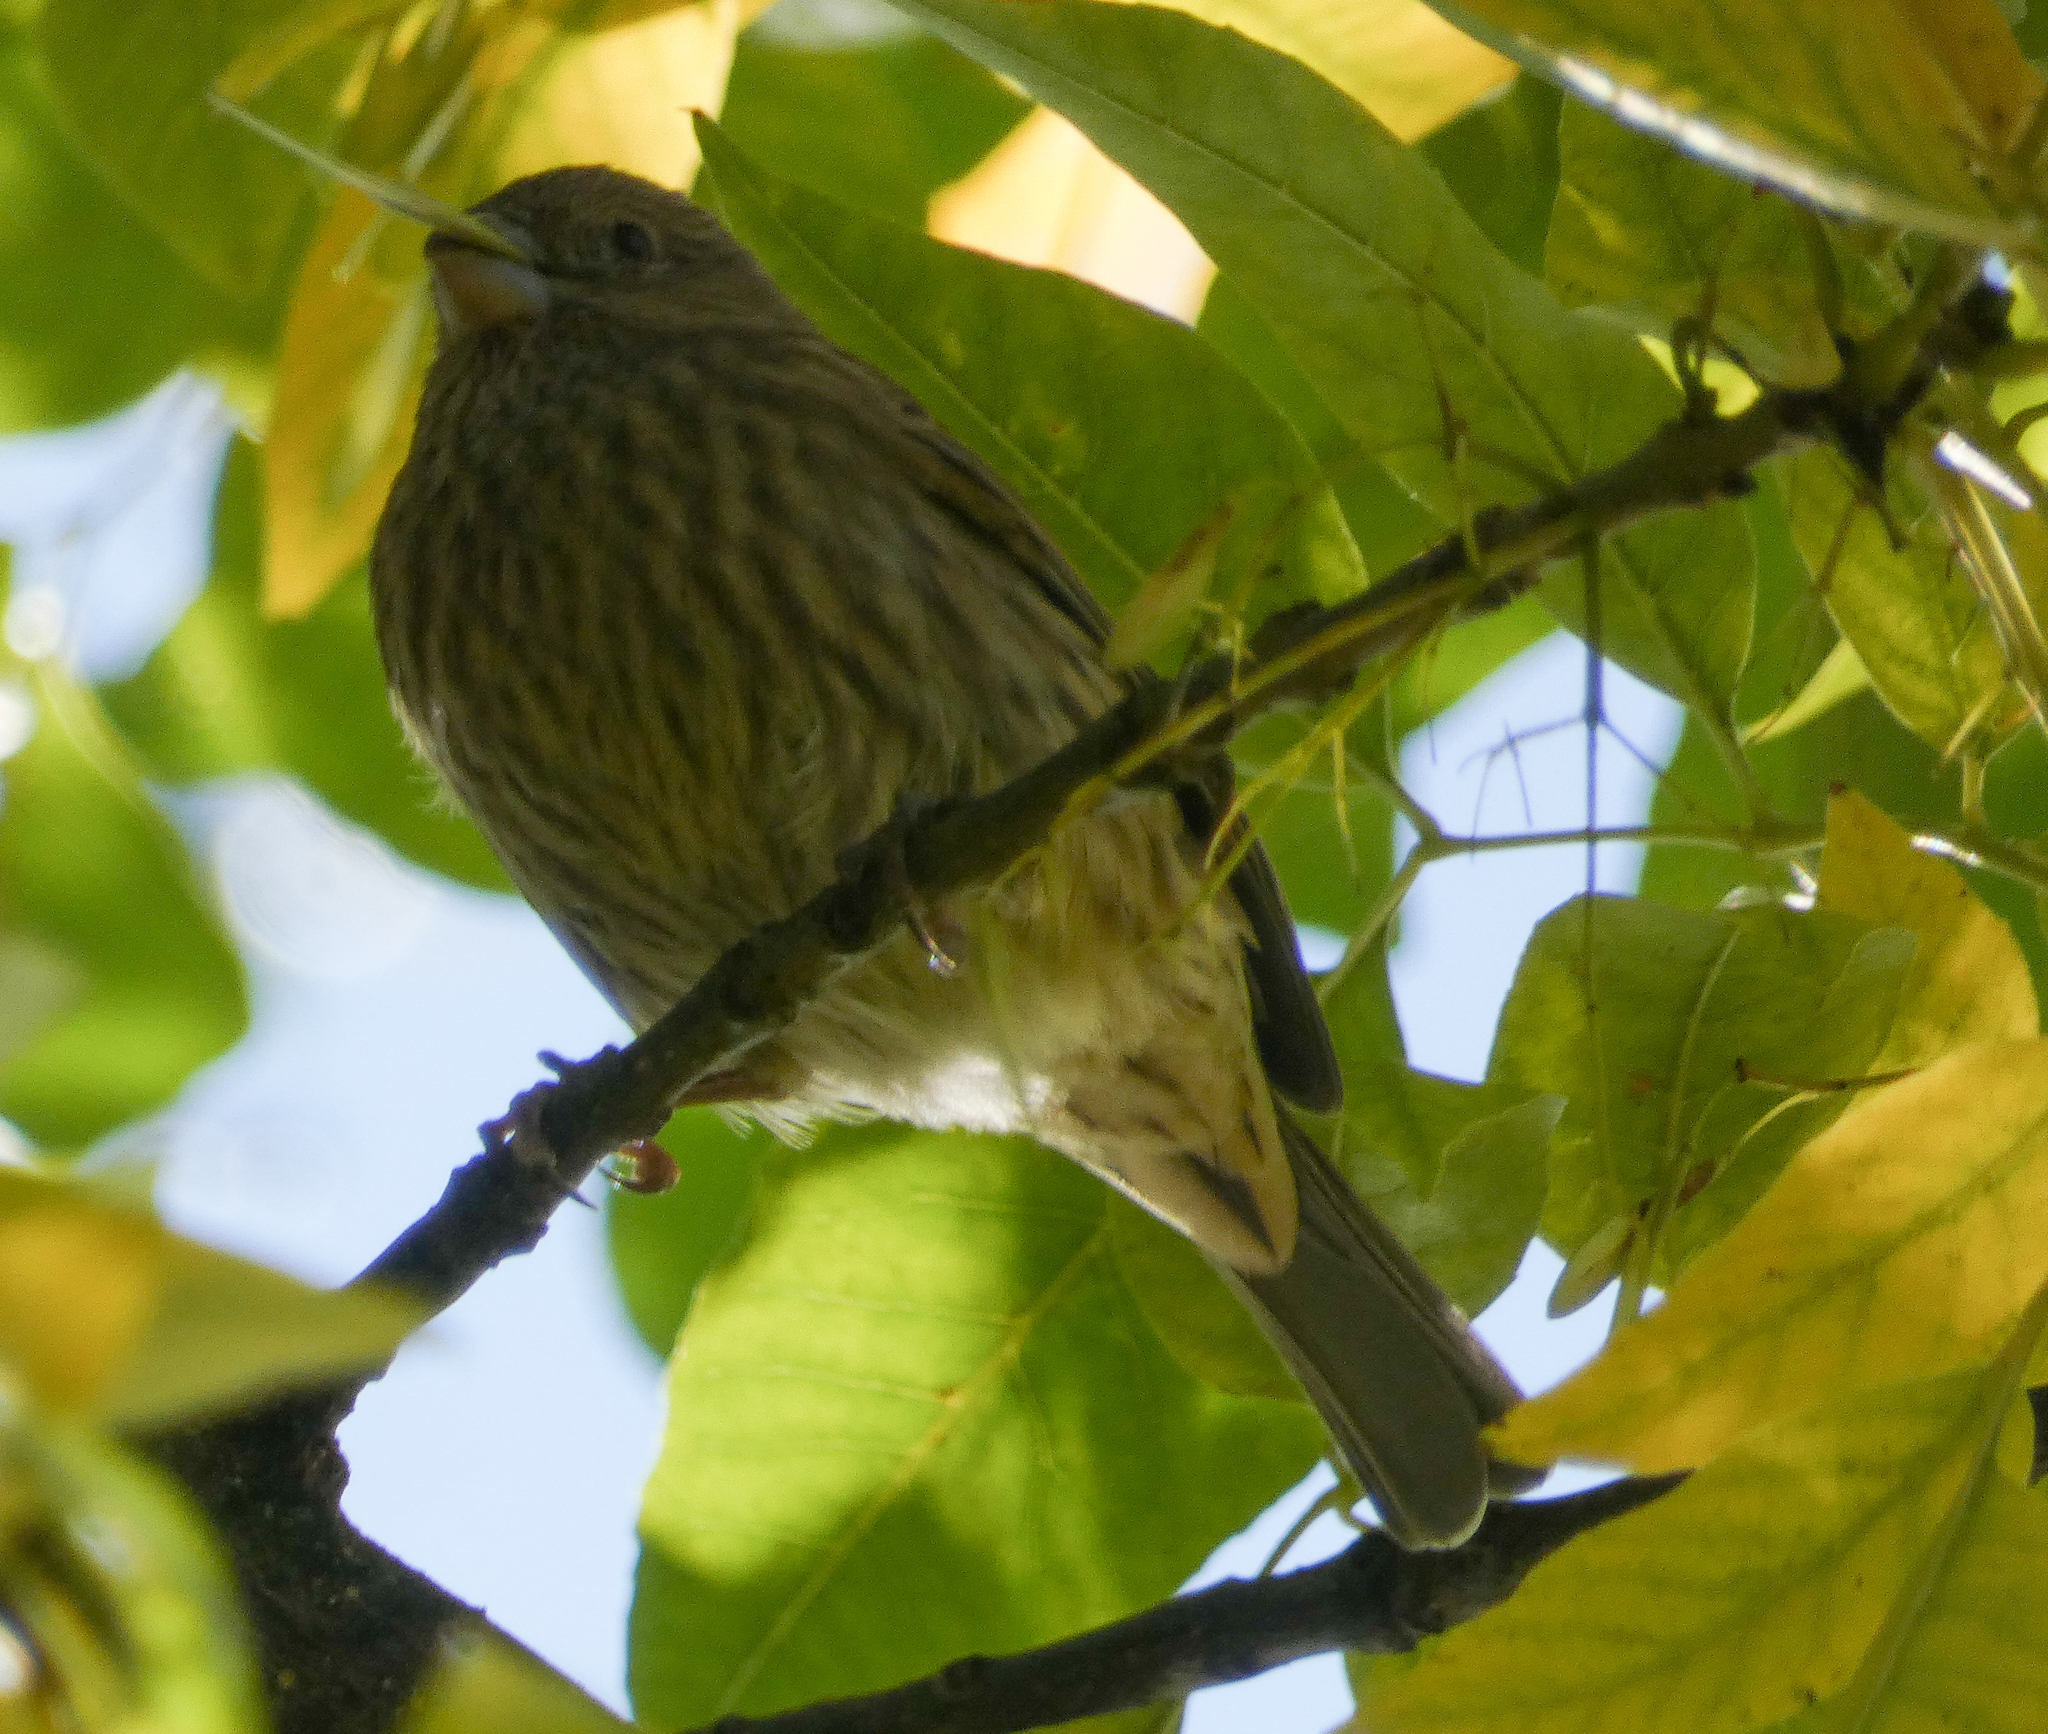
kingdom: Animalia
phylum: Chordata
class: Aves
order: Passeriformes
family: Fringillidae
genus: Haemorhous
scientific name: Haemorhous mexicanus
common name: House finch
